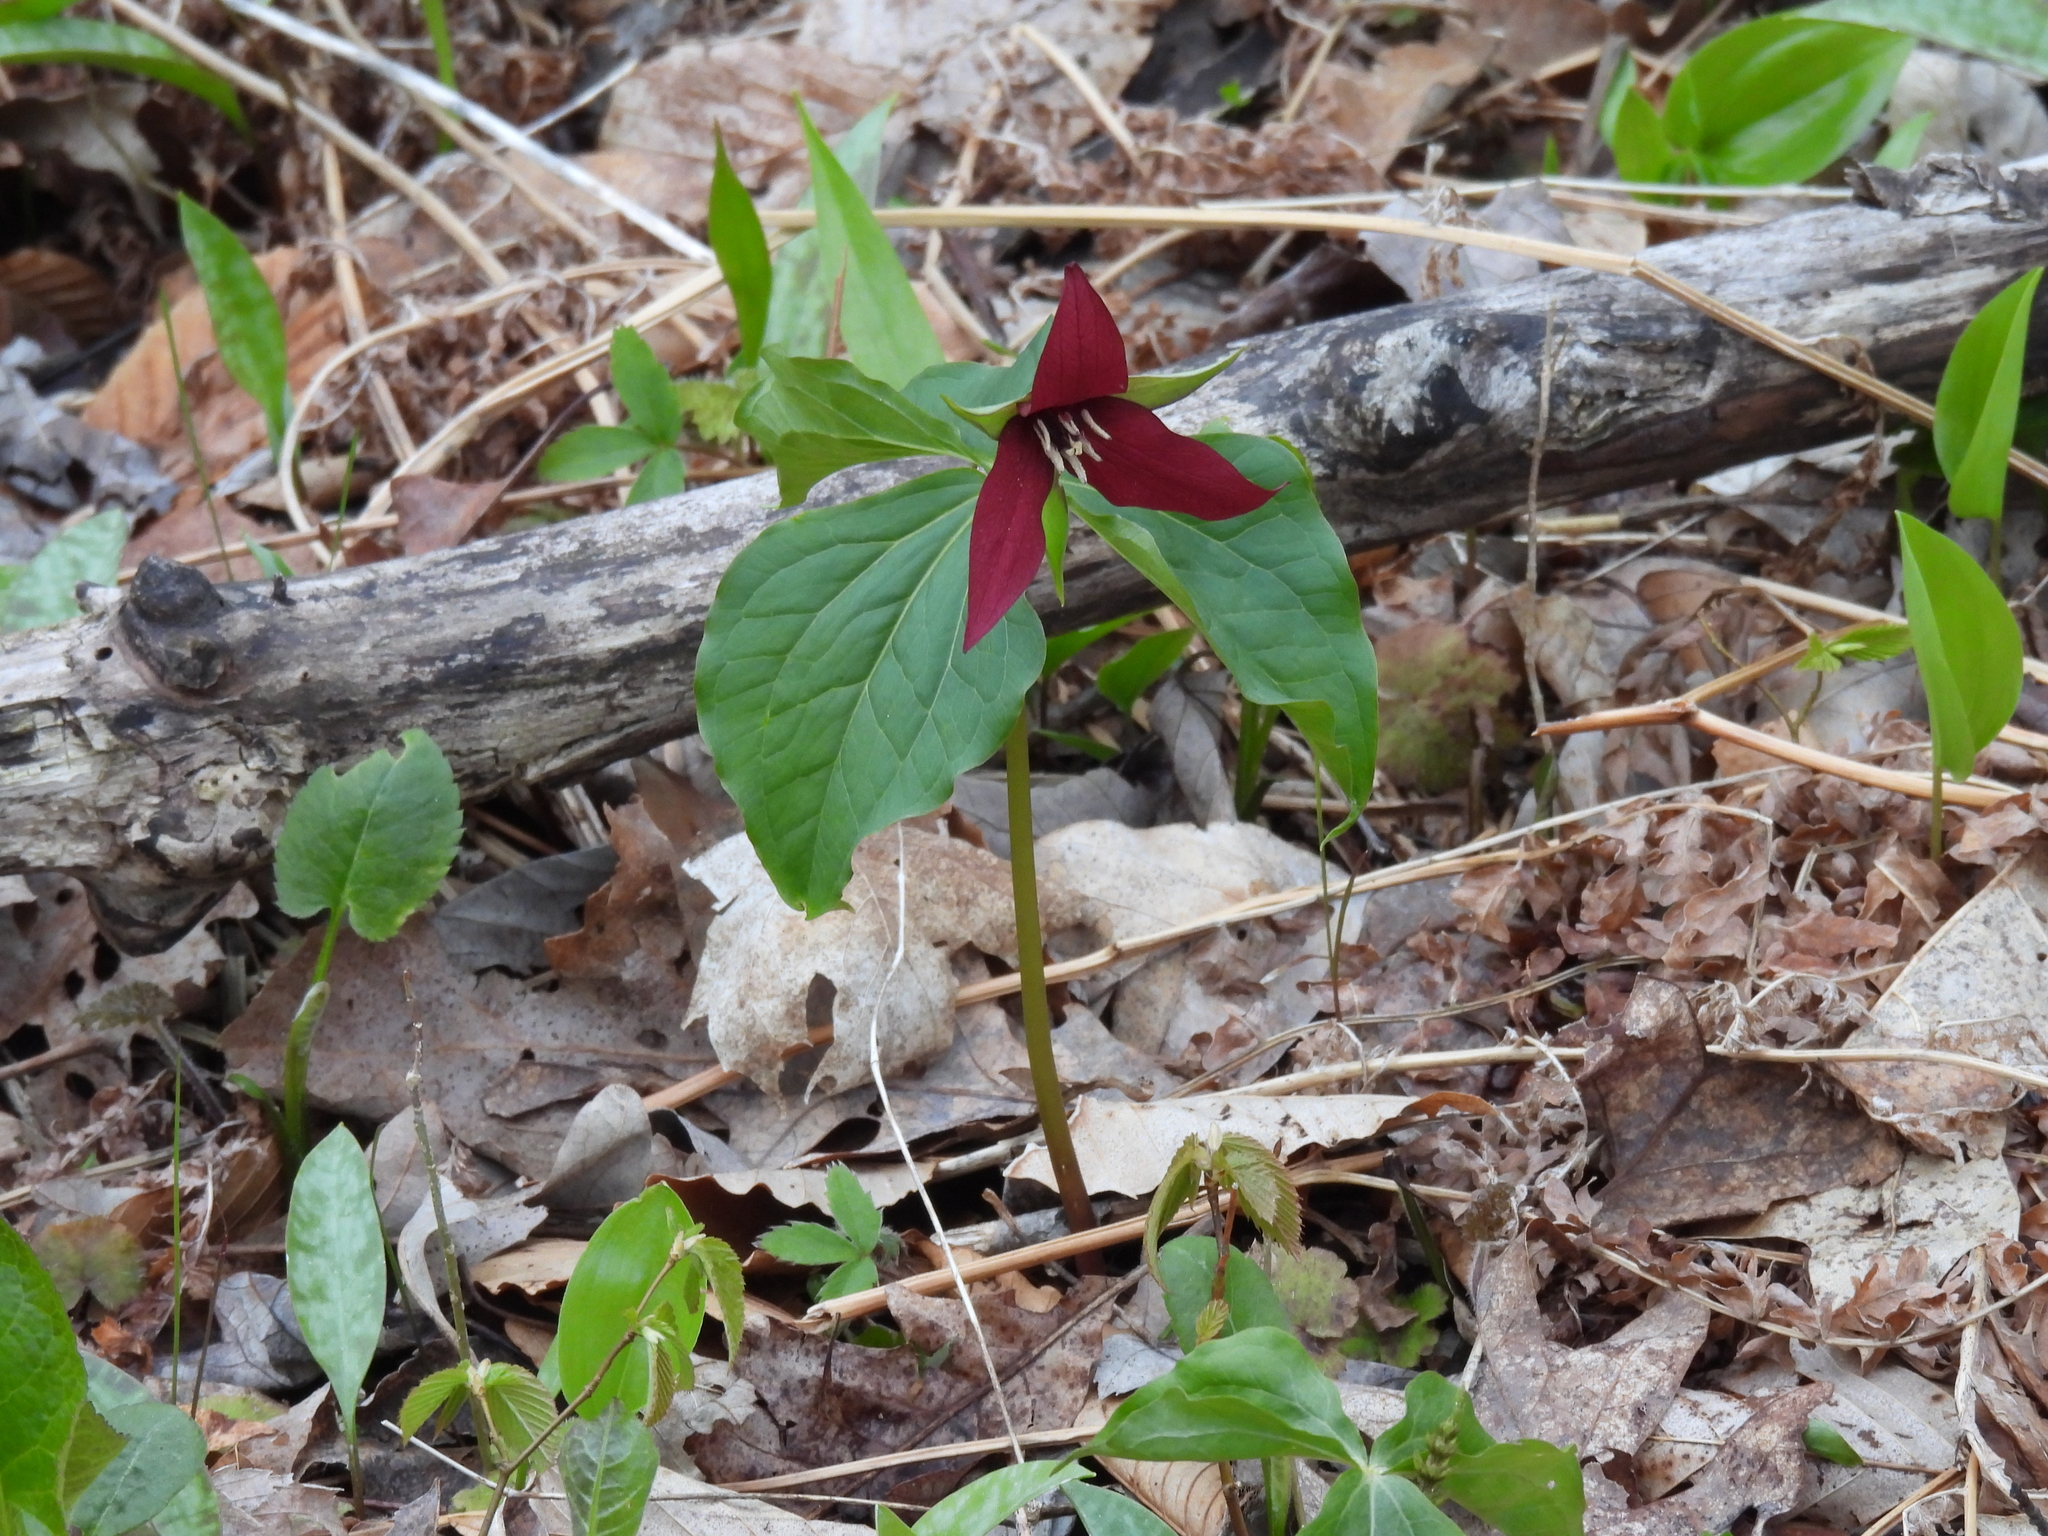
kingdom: Plantae
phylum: Tracheophyta
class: Liliopsida
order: Liliales
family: Melanthiaceae
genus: Trillium
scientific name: Trillium erectum
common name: Purple trillium
